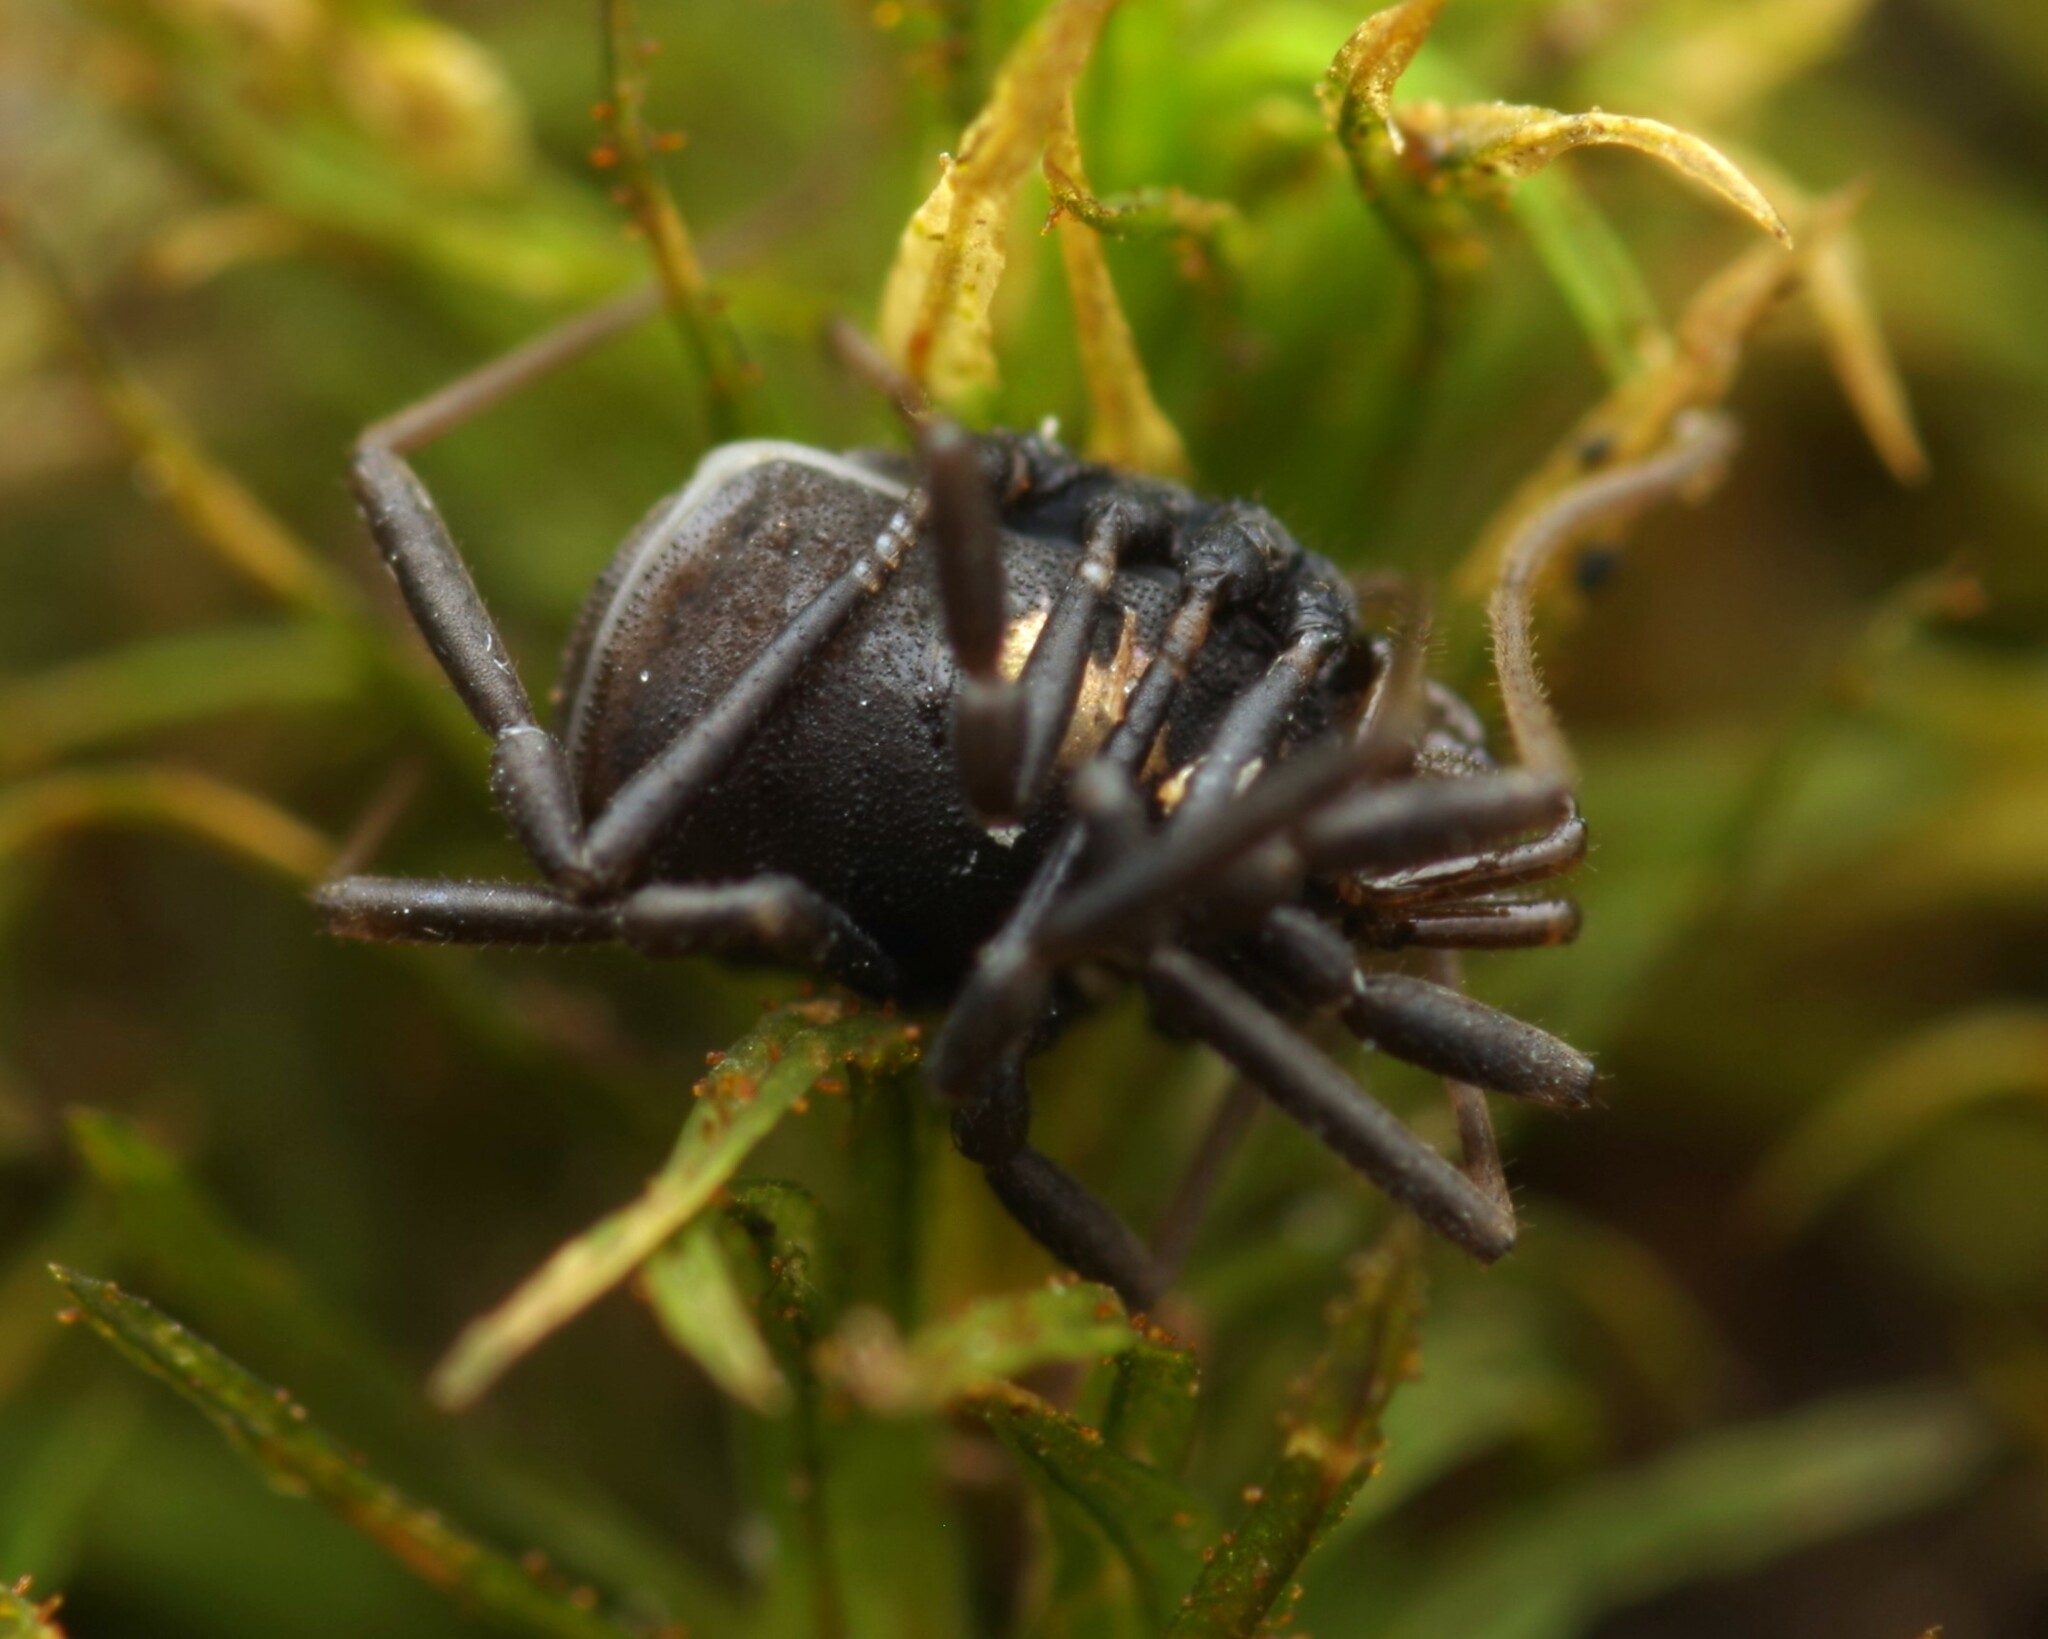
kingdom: Animalia
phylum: Arthropoda
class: Arachnida
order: Opiliones
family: Nemastomatidae
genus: Nemastoma
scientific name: Nemastoma bimaculatum
